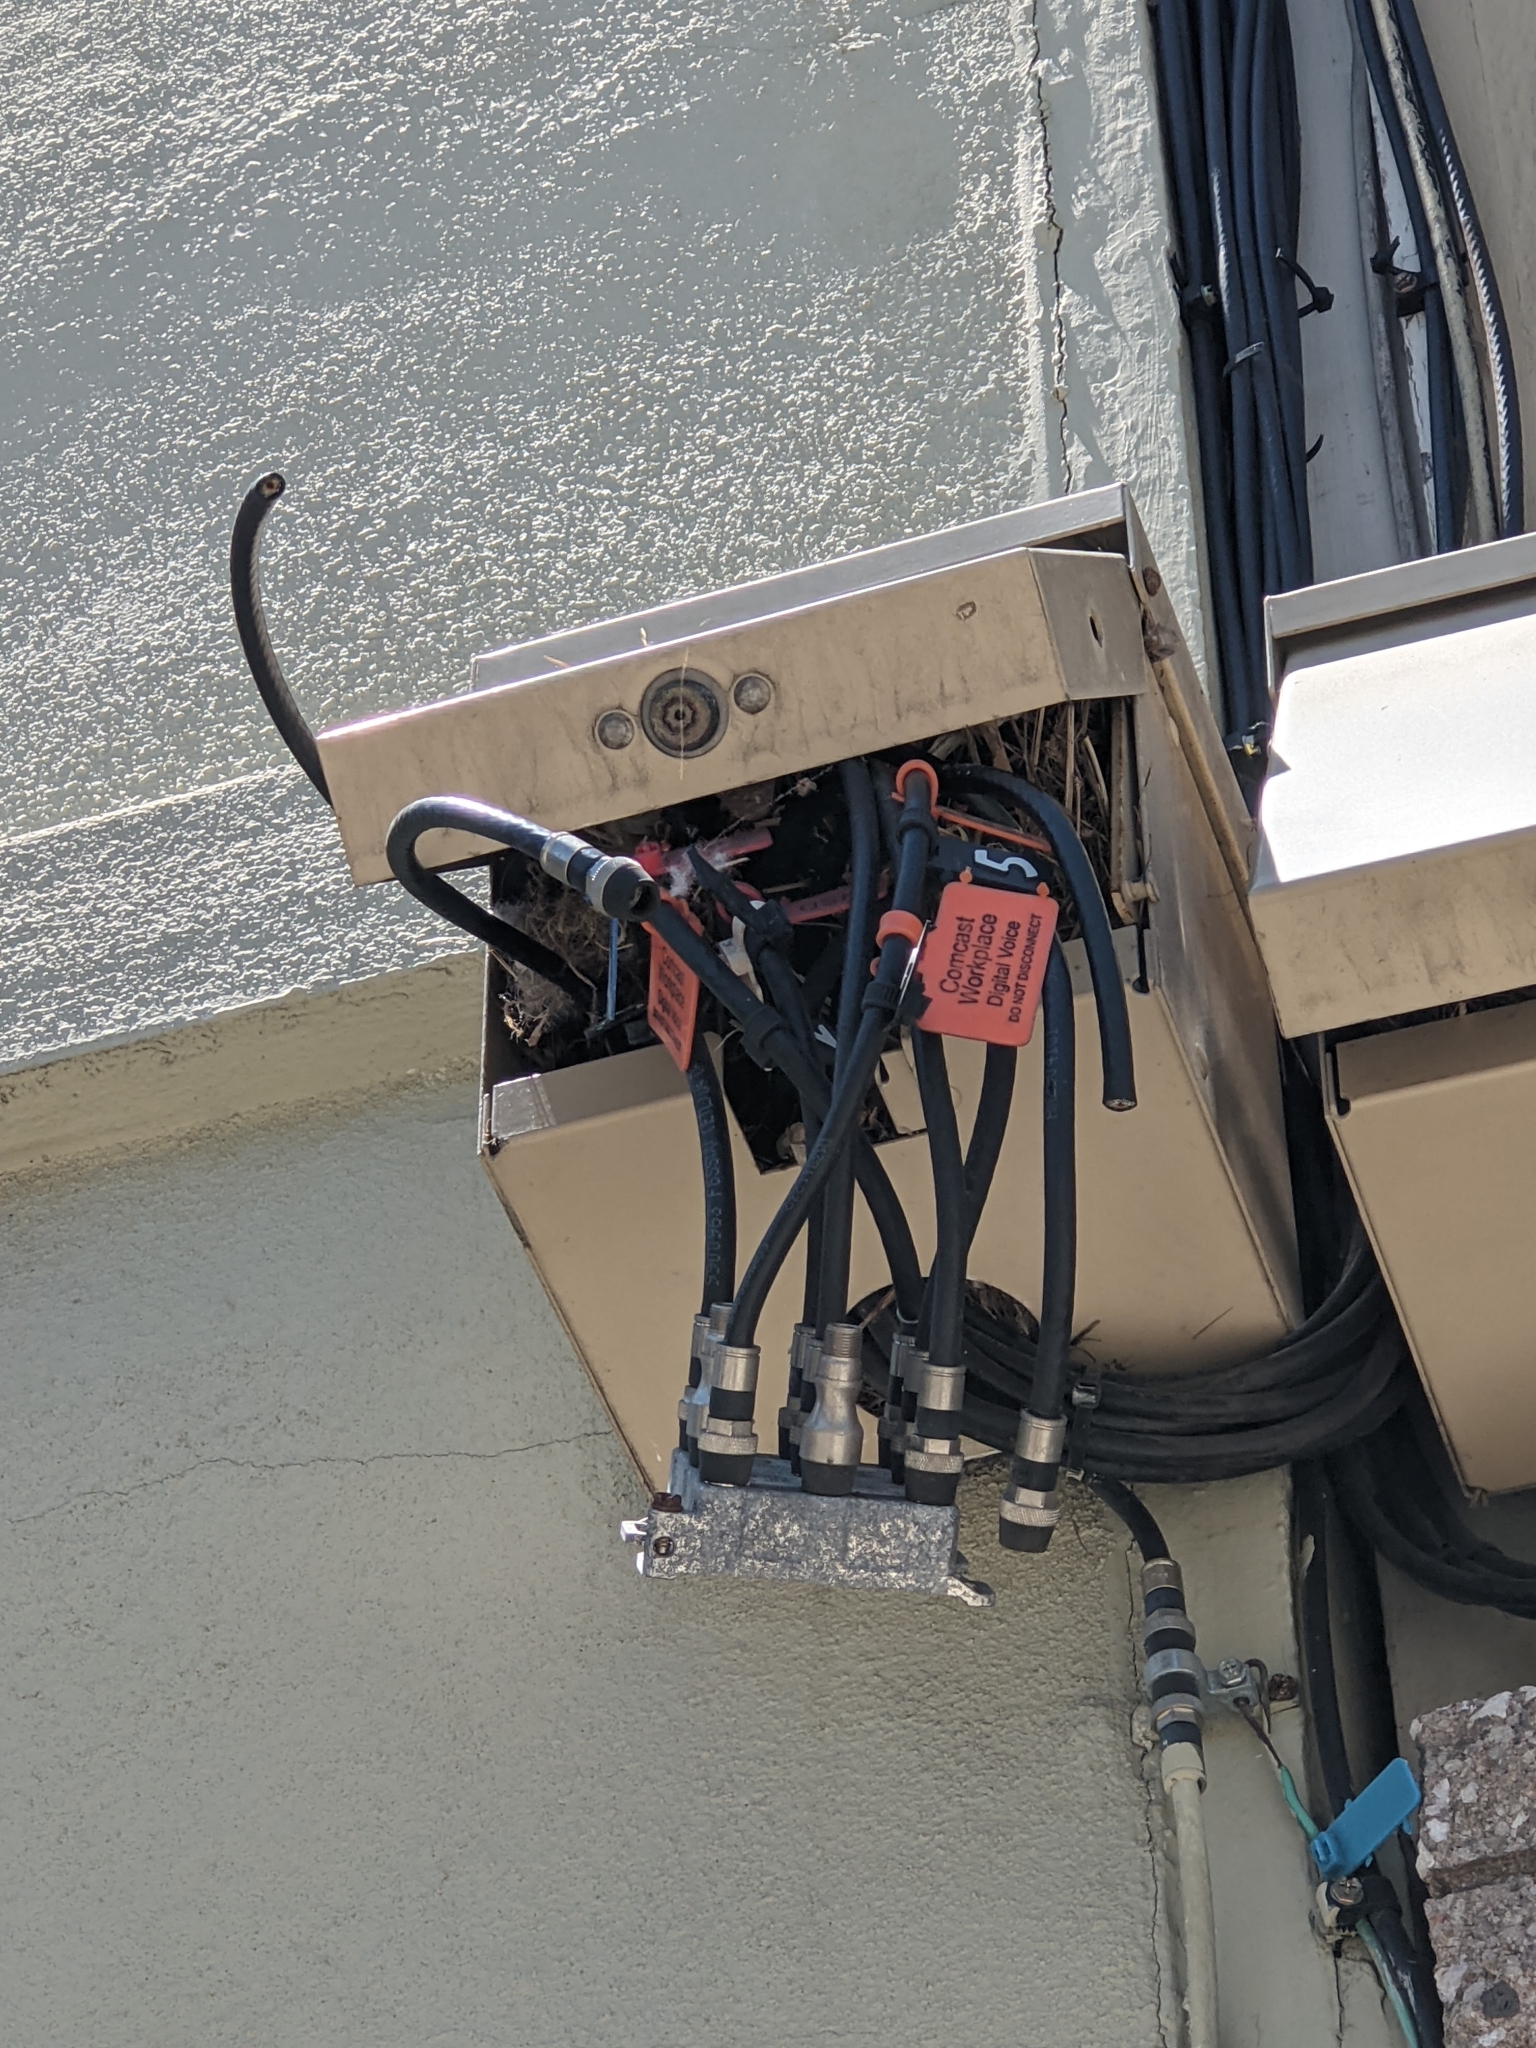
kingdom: Animalia
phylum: Chordata
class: Aves
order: Passeriformes
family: Passeridae
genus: Passer
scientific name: Passer domesticus
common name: House sparrow
